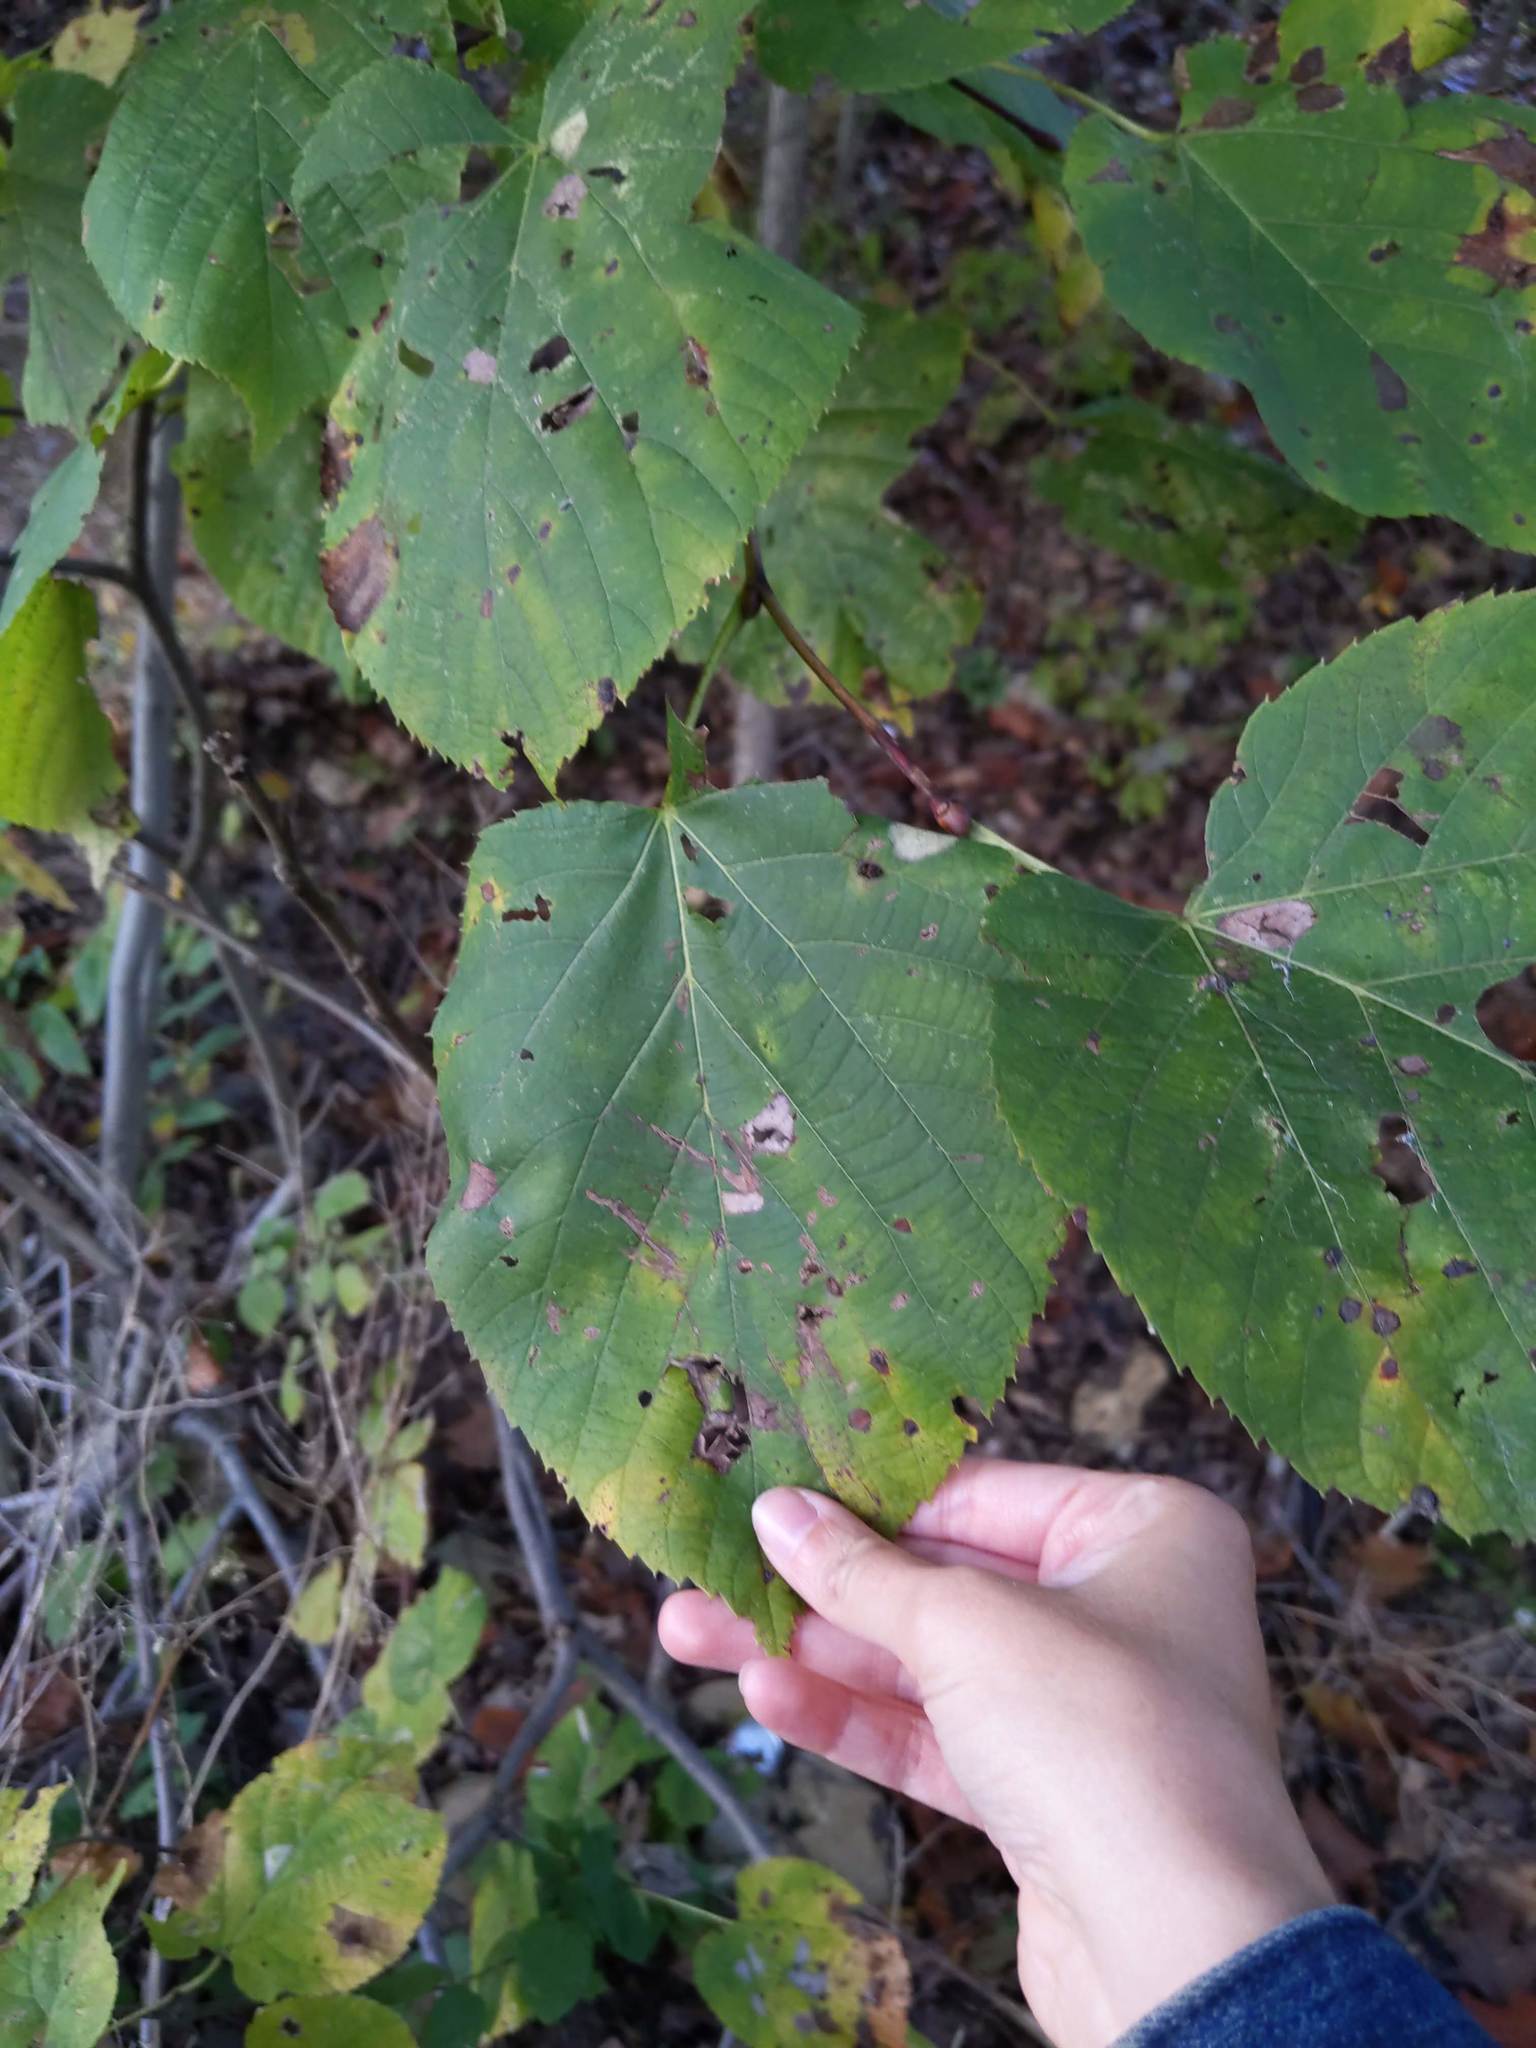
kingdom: Plantae
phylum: Tracheophyta
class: Magnoliopsida
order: Malvales
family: Malvaceae
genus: Tilia
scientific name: Tilia americana
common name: Basswood
